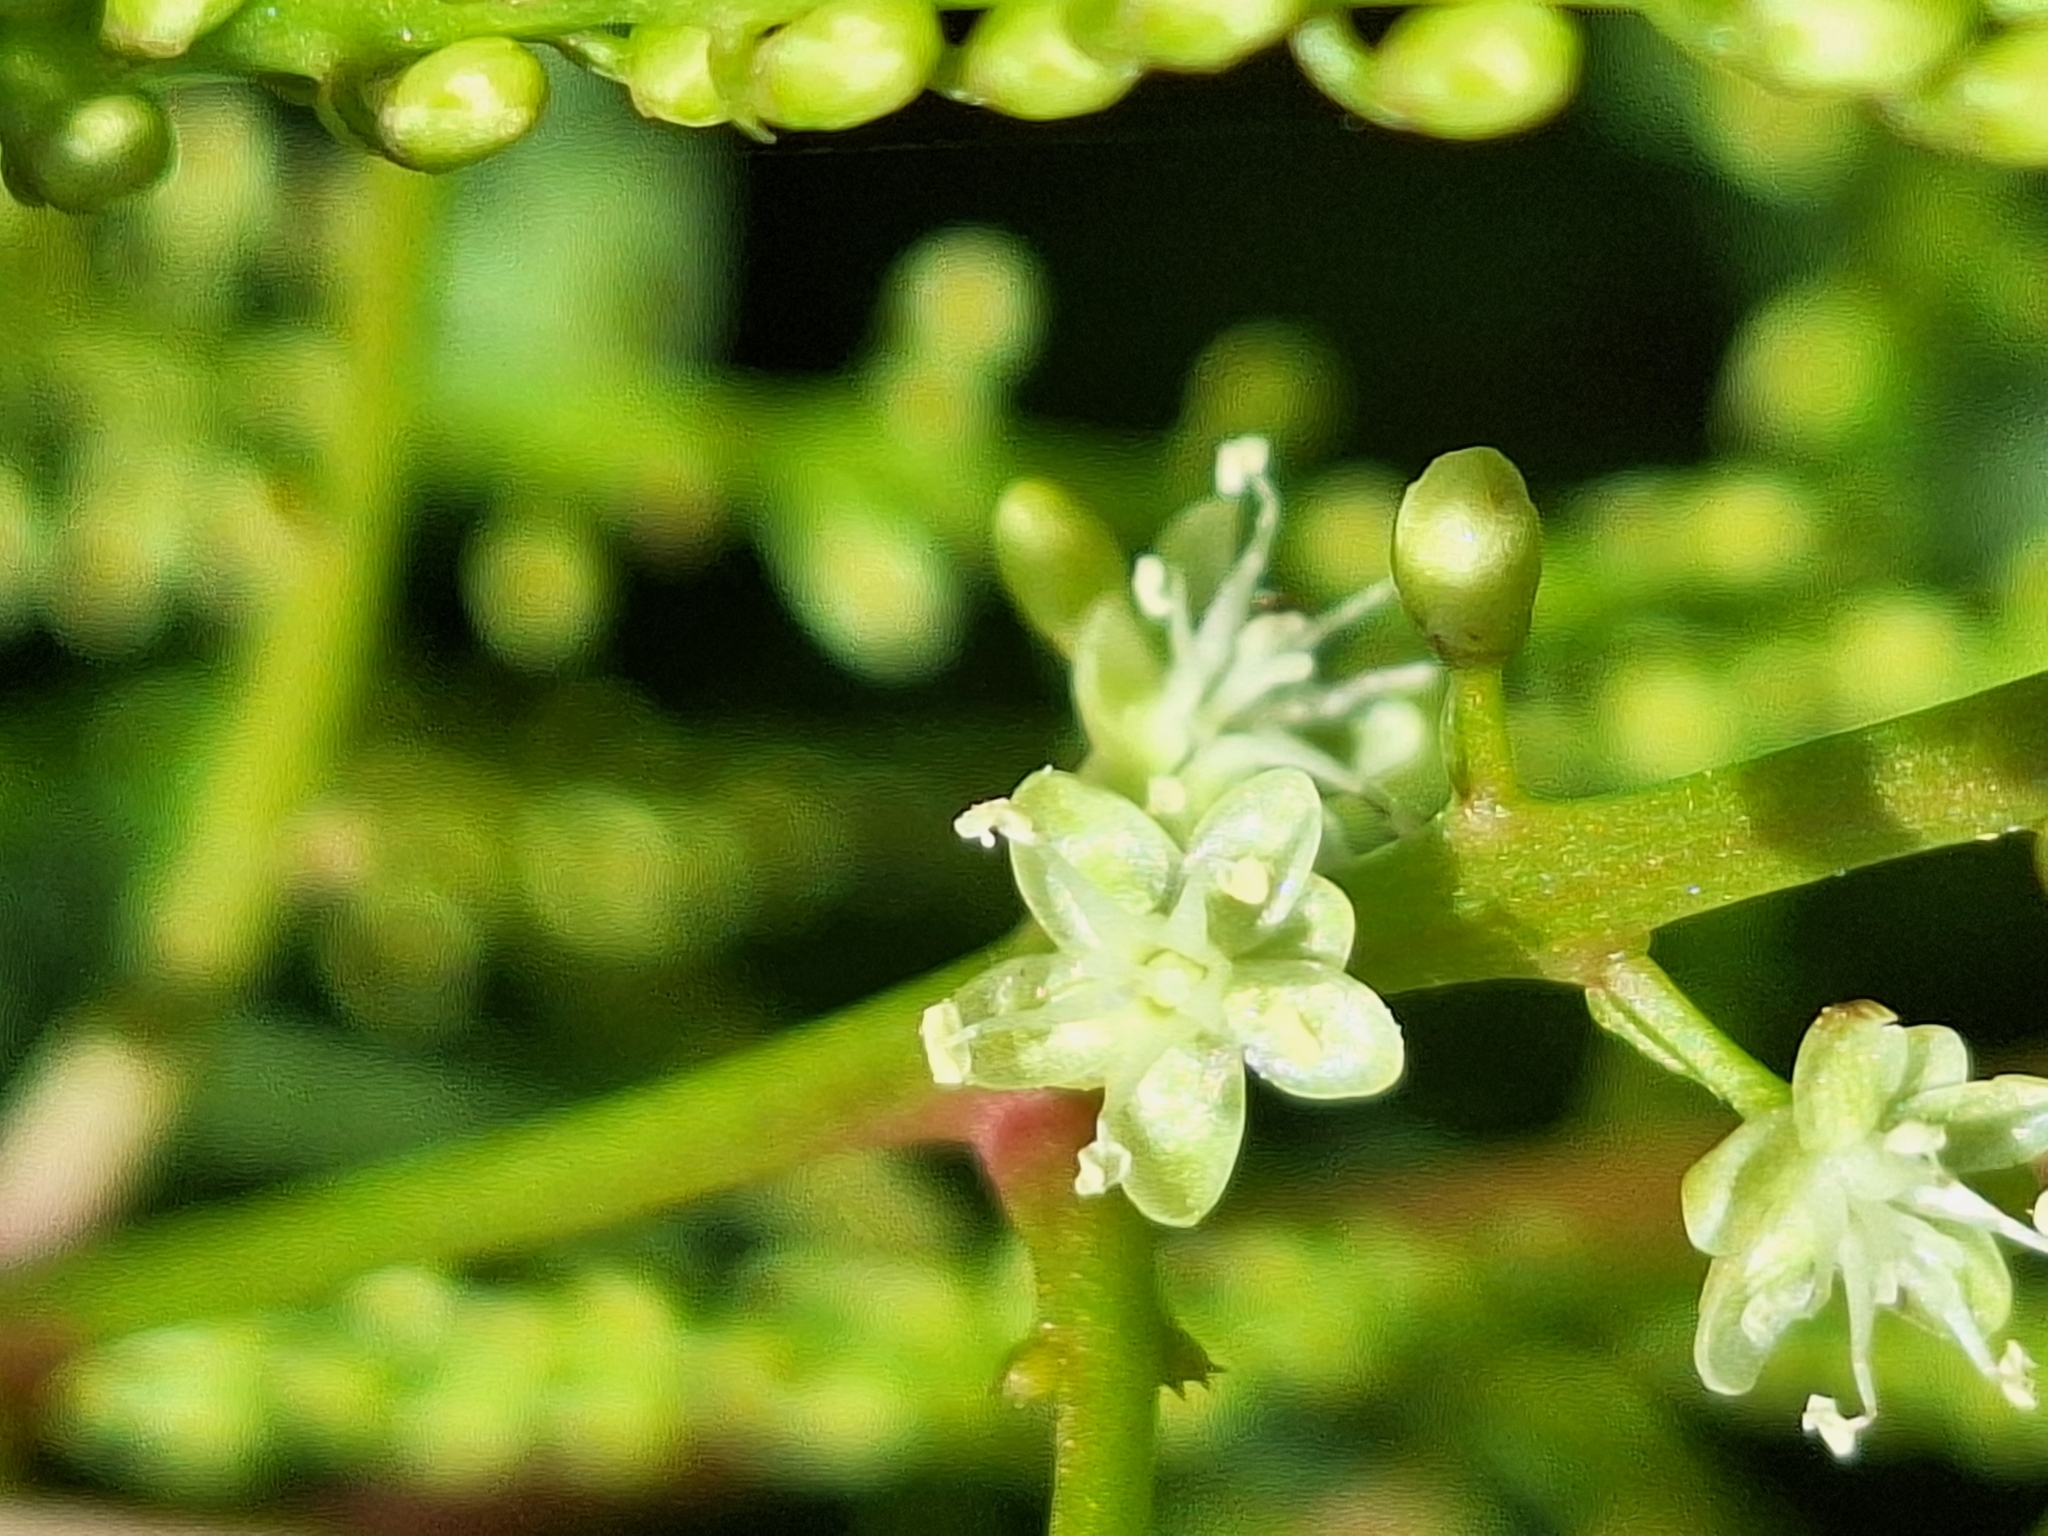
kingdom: Plantae
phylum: Tracheophyta
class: Magnoliopsida
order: Caryophyllales
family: Basellaceae
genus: Anredera
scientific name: Anredera cordifolia
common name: Heartleaf madeiravine
